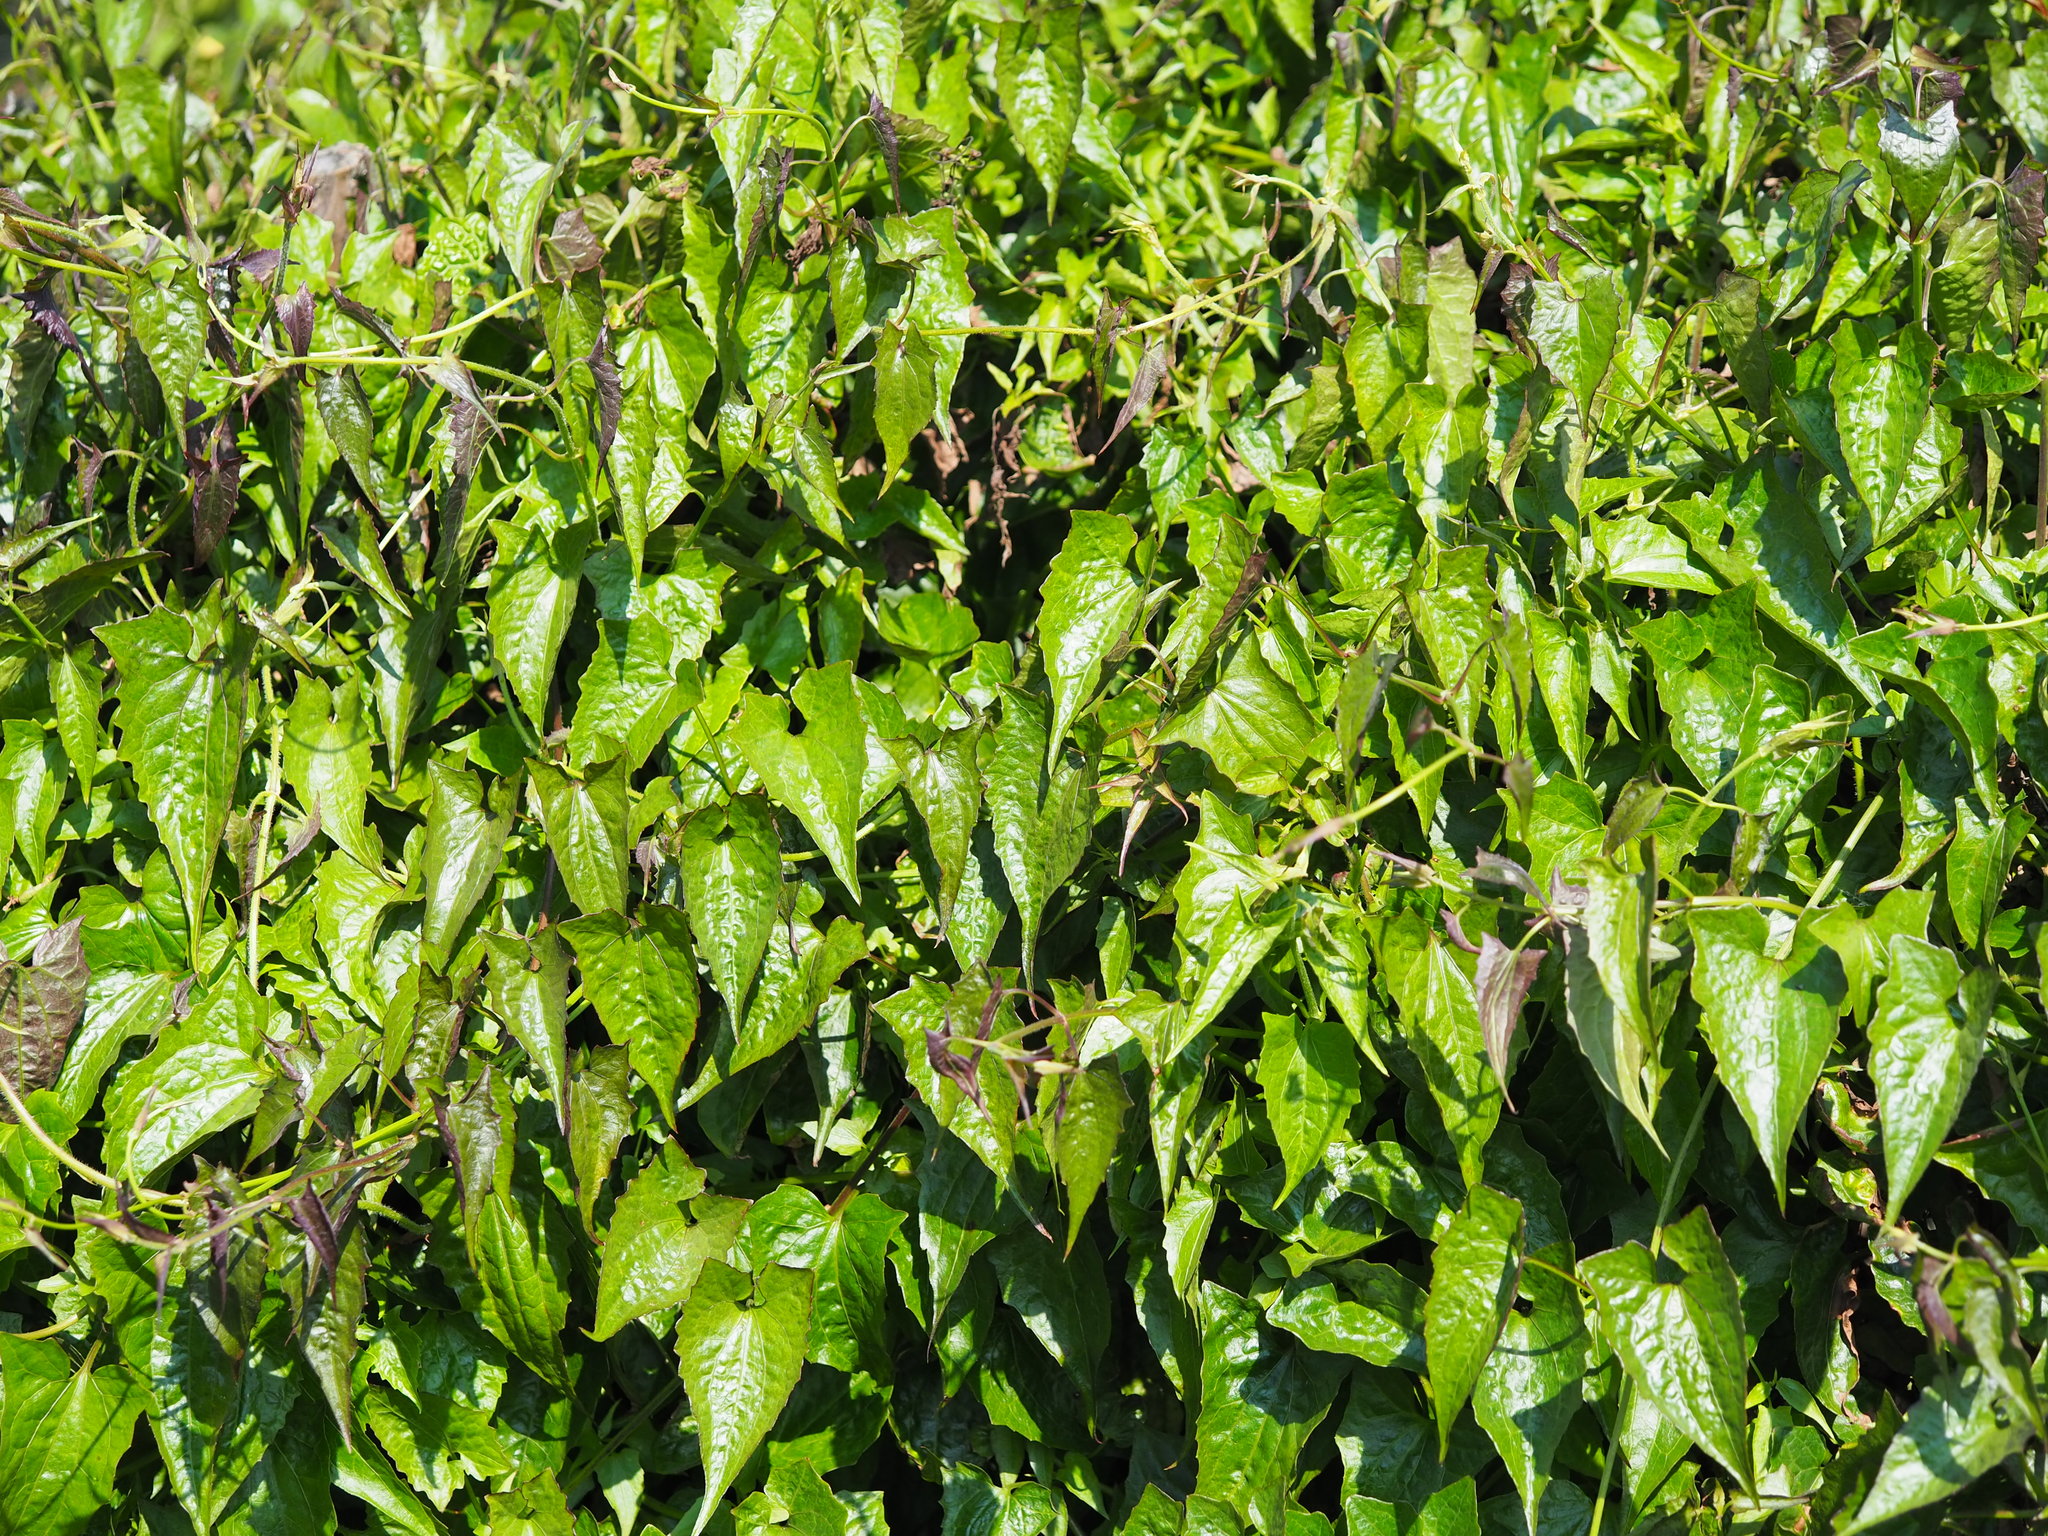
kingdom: Plantae
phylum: Tracheophyta
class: Magnoliopsida
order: Asterales
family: Asteraceae
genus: Mikania
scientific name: Mikania micrantha
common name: Mile-a-minute
